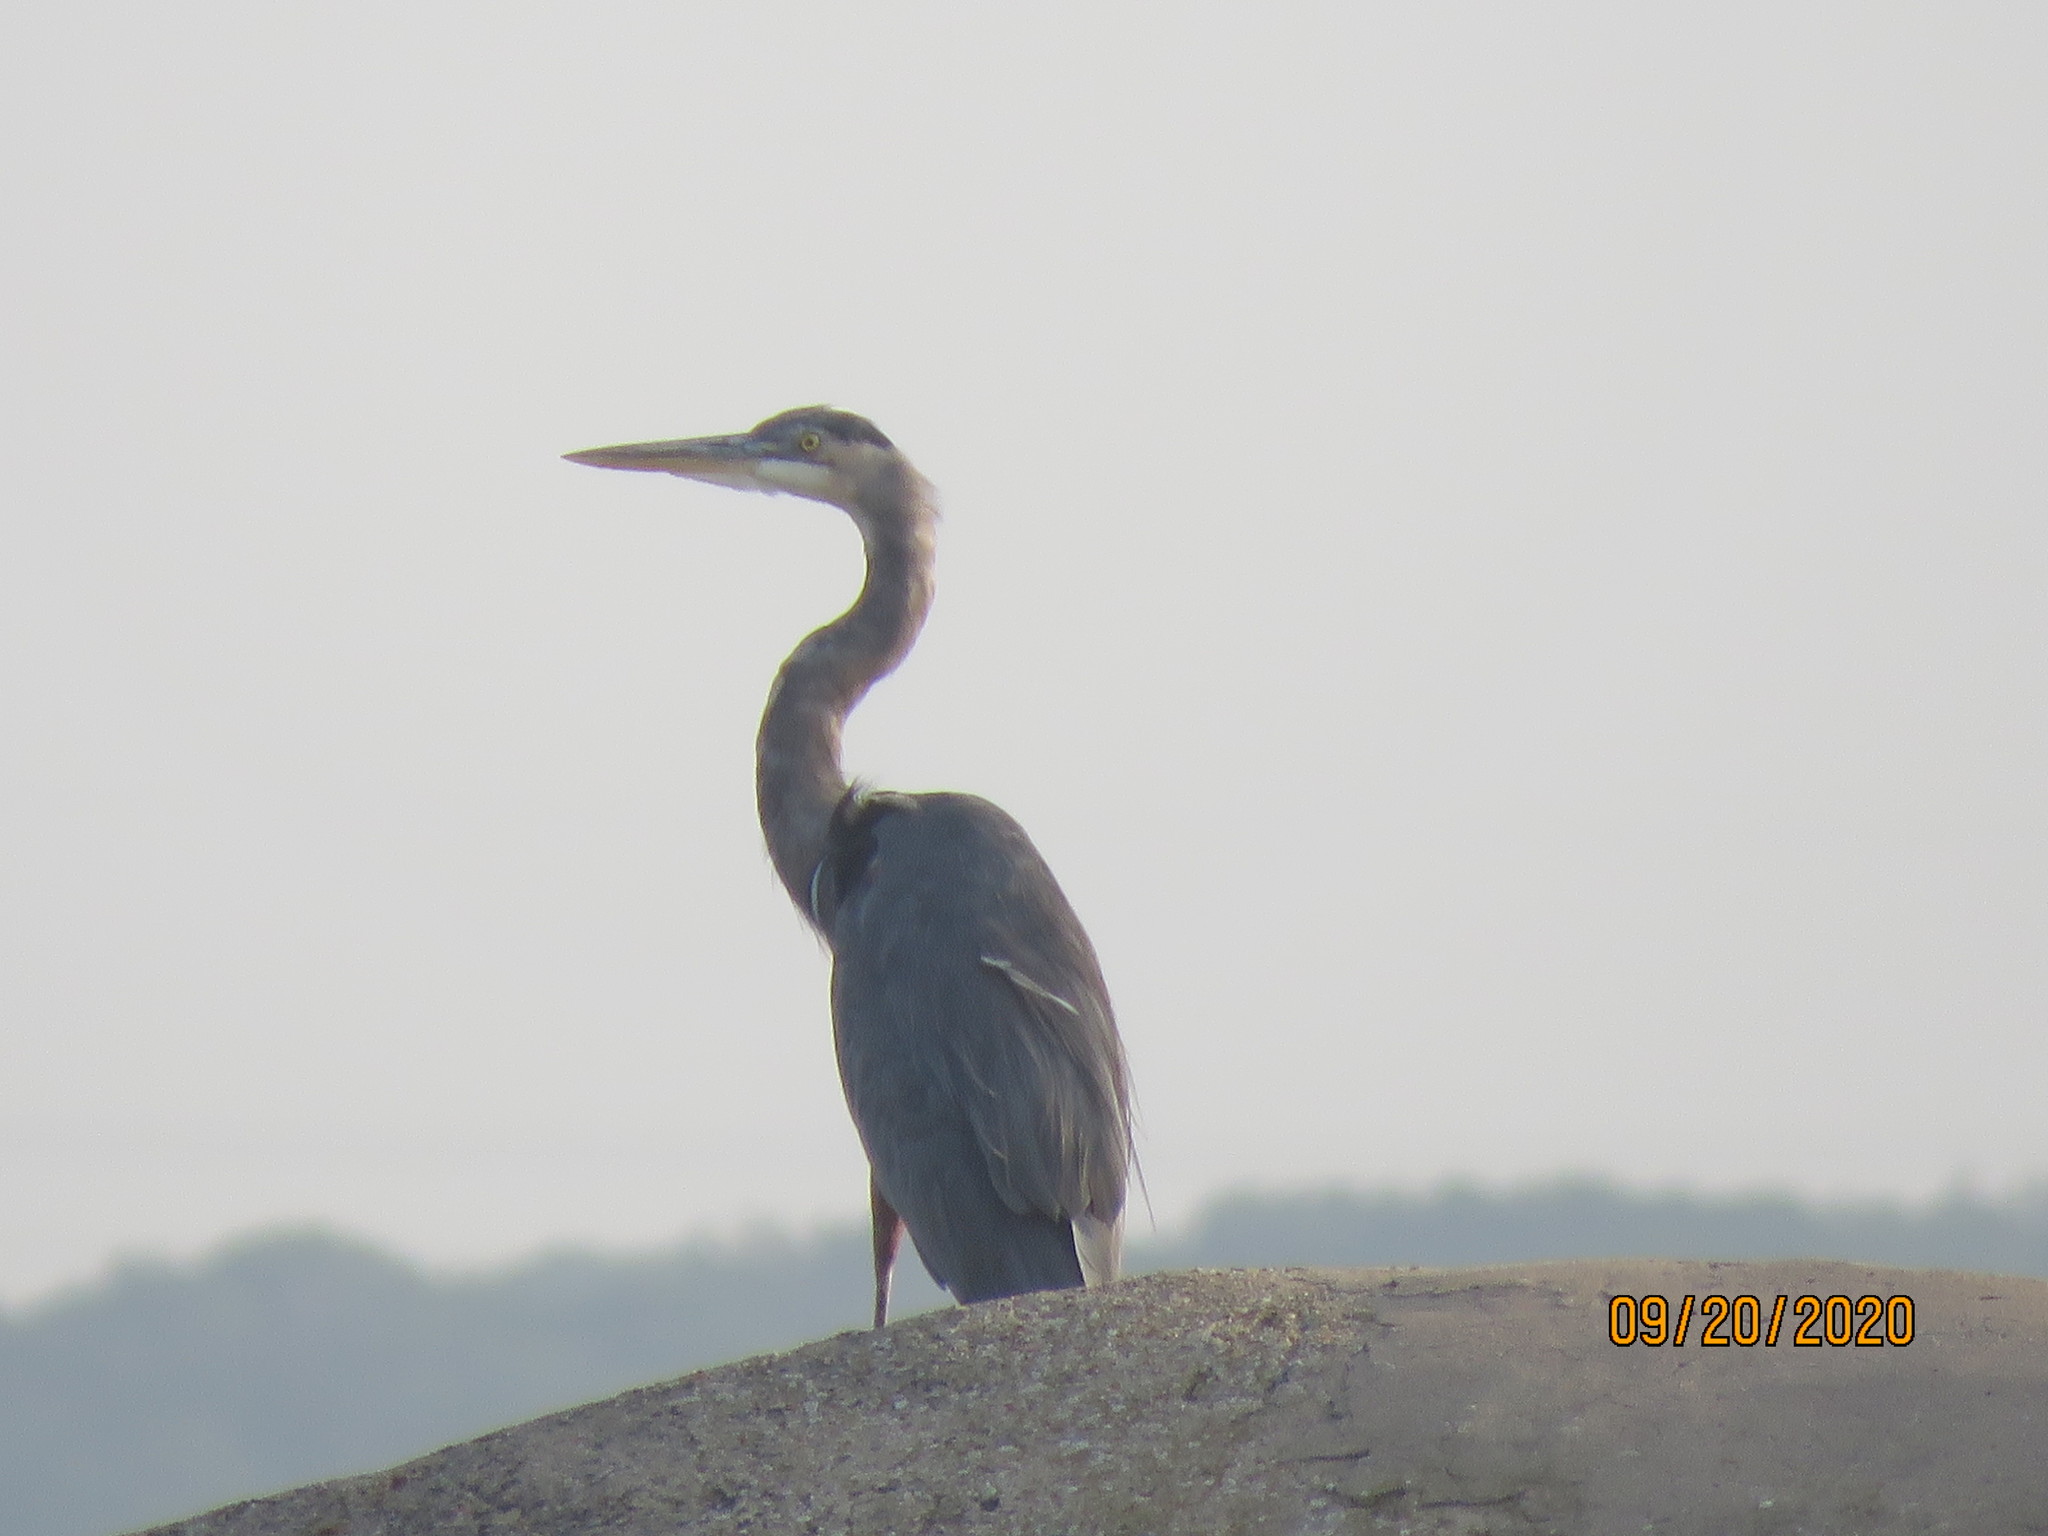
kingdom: Animalia
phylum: Chordata
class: Aves
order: Pelecaniformes
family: Ardeidae
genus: Ardea
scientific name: Ardea herodias
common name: Great blue heron
